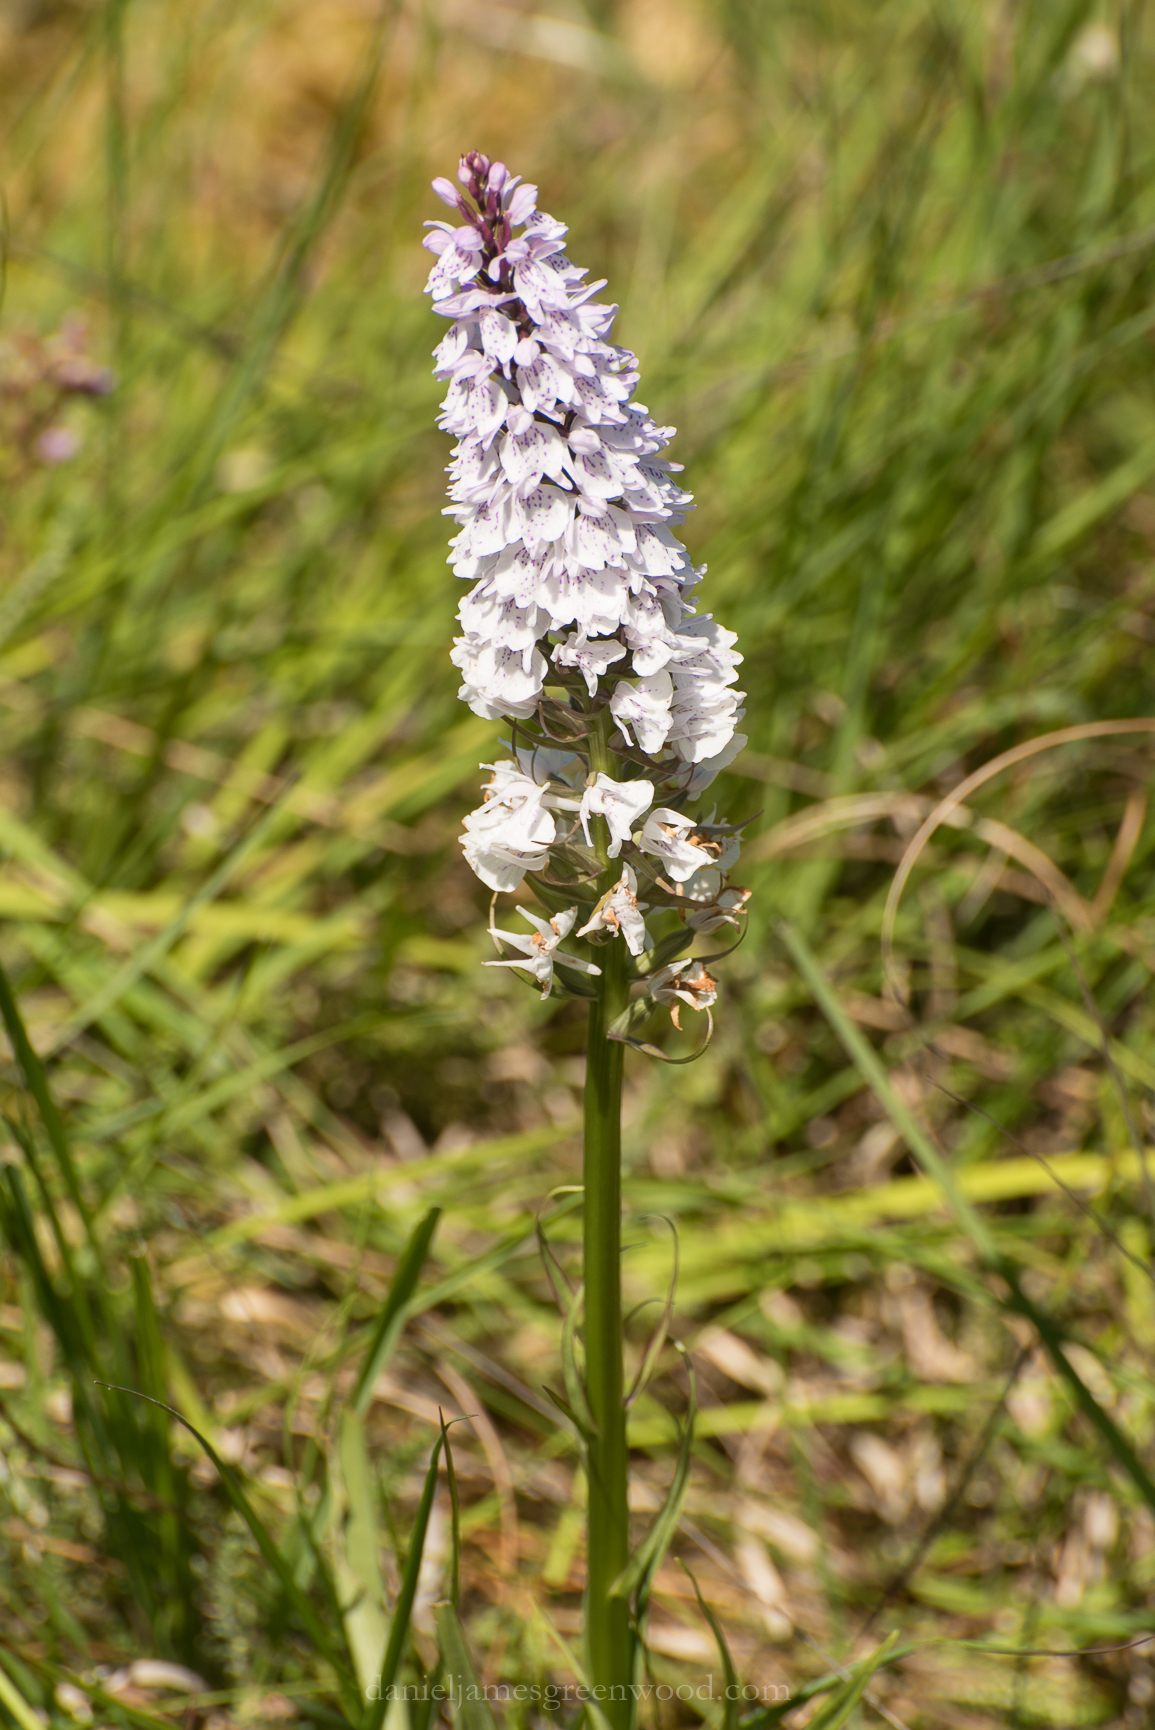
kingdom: Plantae
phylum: Tracheophyta
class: Liliopsida
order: Asparagales
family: Orchidaceae
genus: Dactylorhiza
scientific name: Dactylorhiza maculata
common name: Heath spotted-orchid
